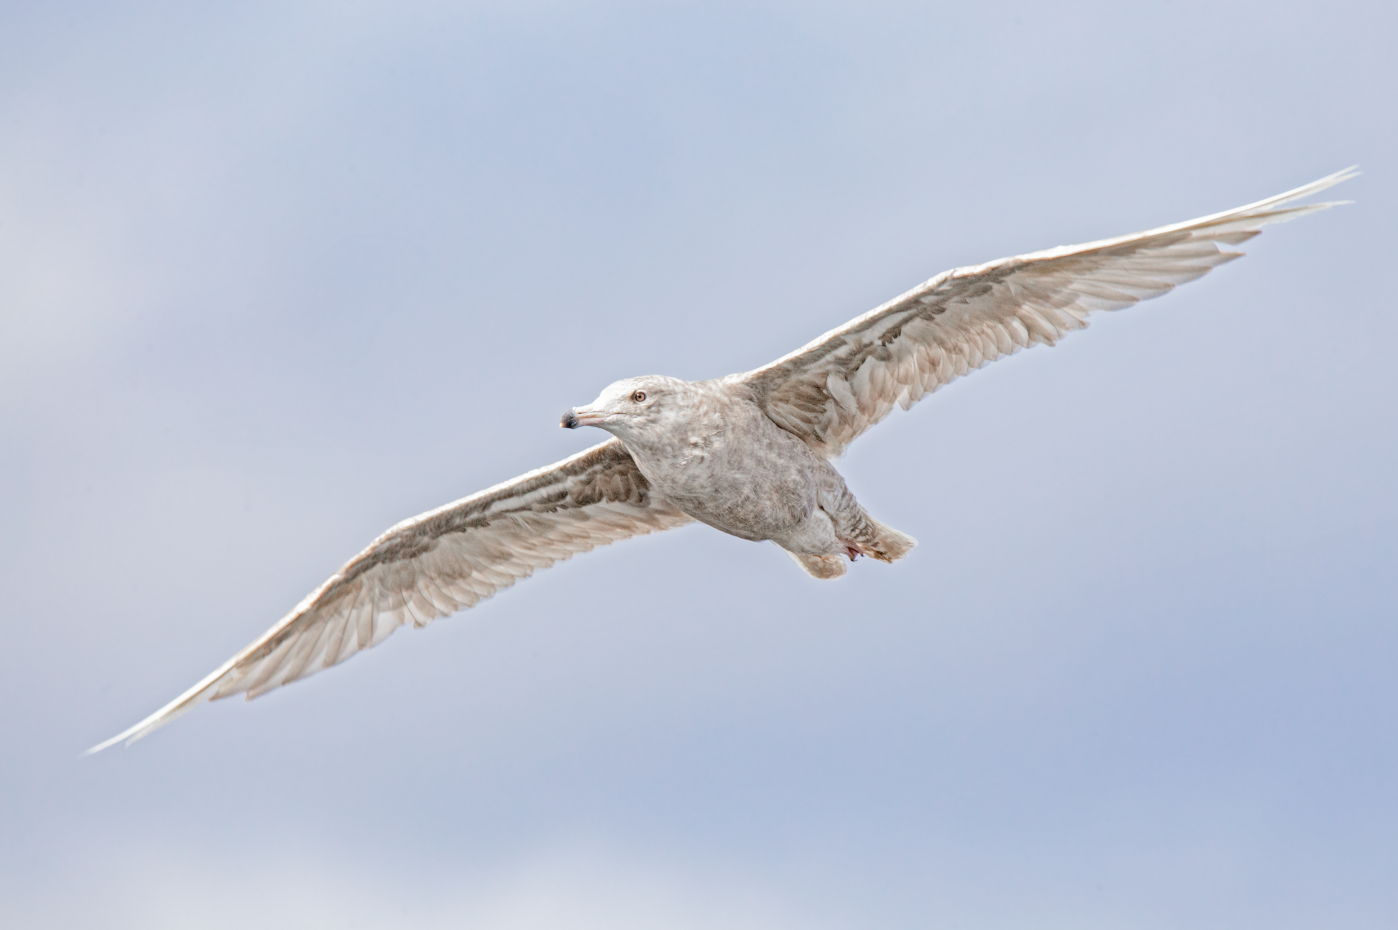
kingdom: Animalia
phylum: Chordata
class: Aves
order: Charadriiformes
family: Laridae
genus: Larus
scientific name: Larus hyperboreus
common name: Glaucous gull
